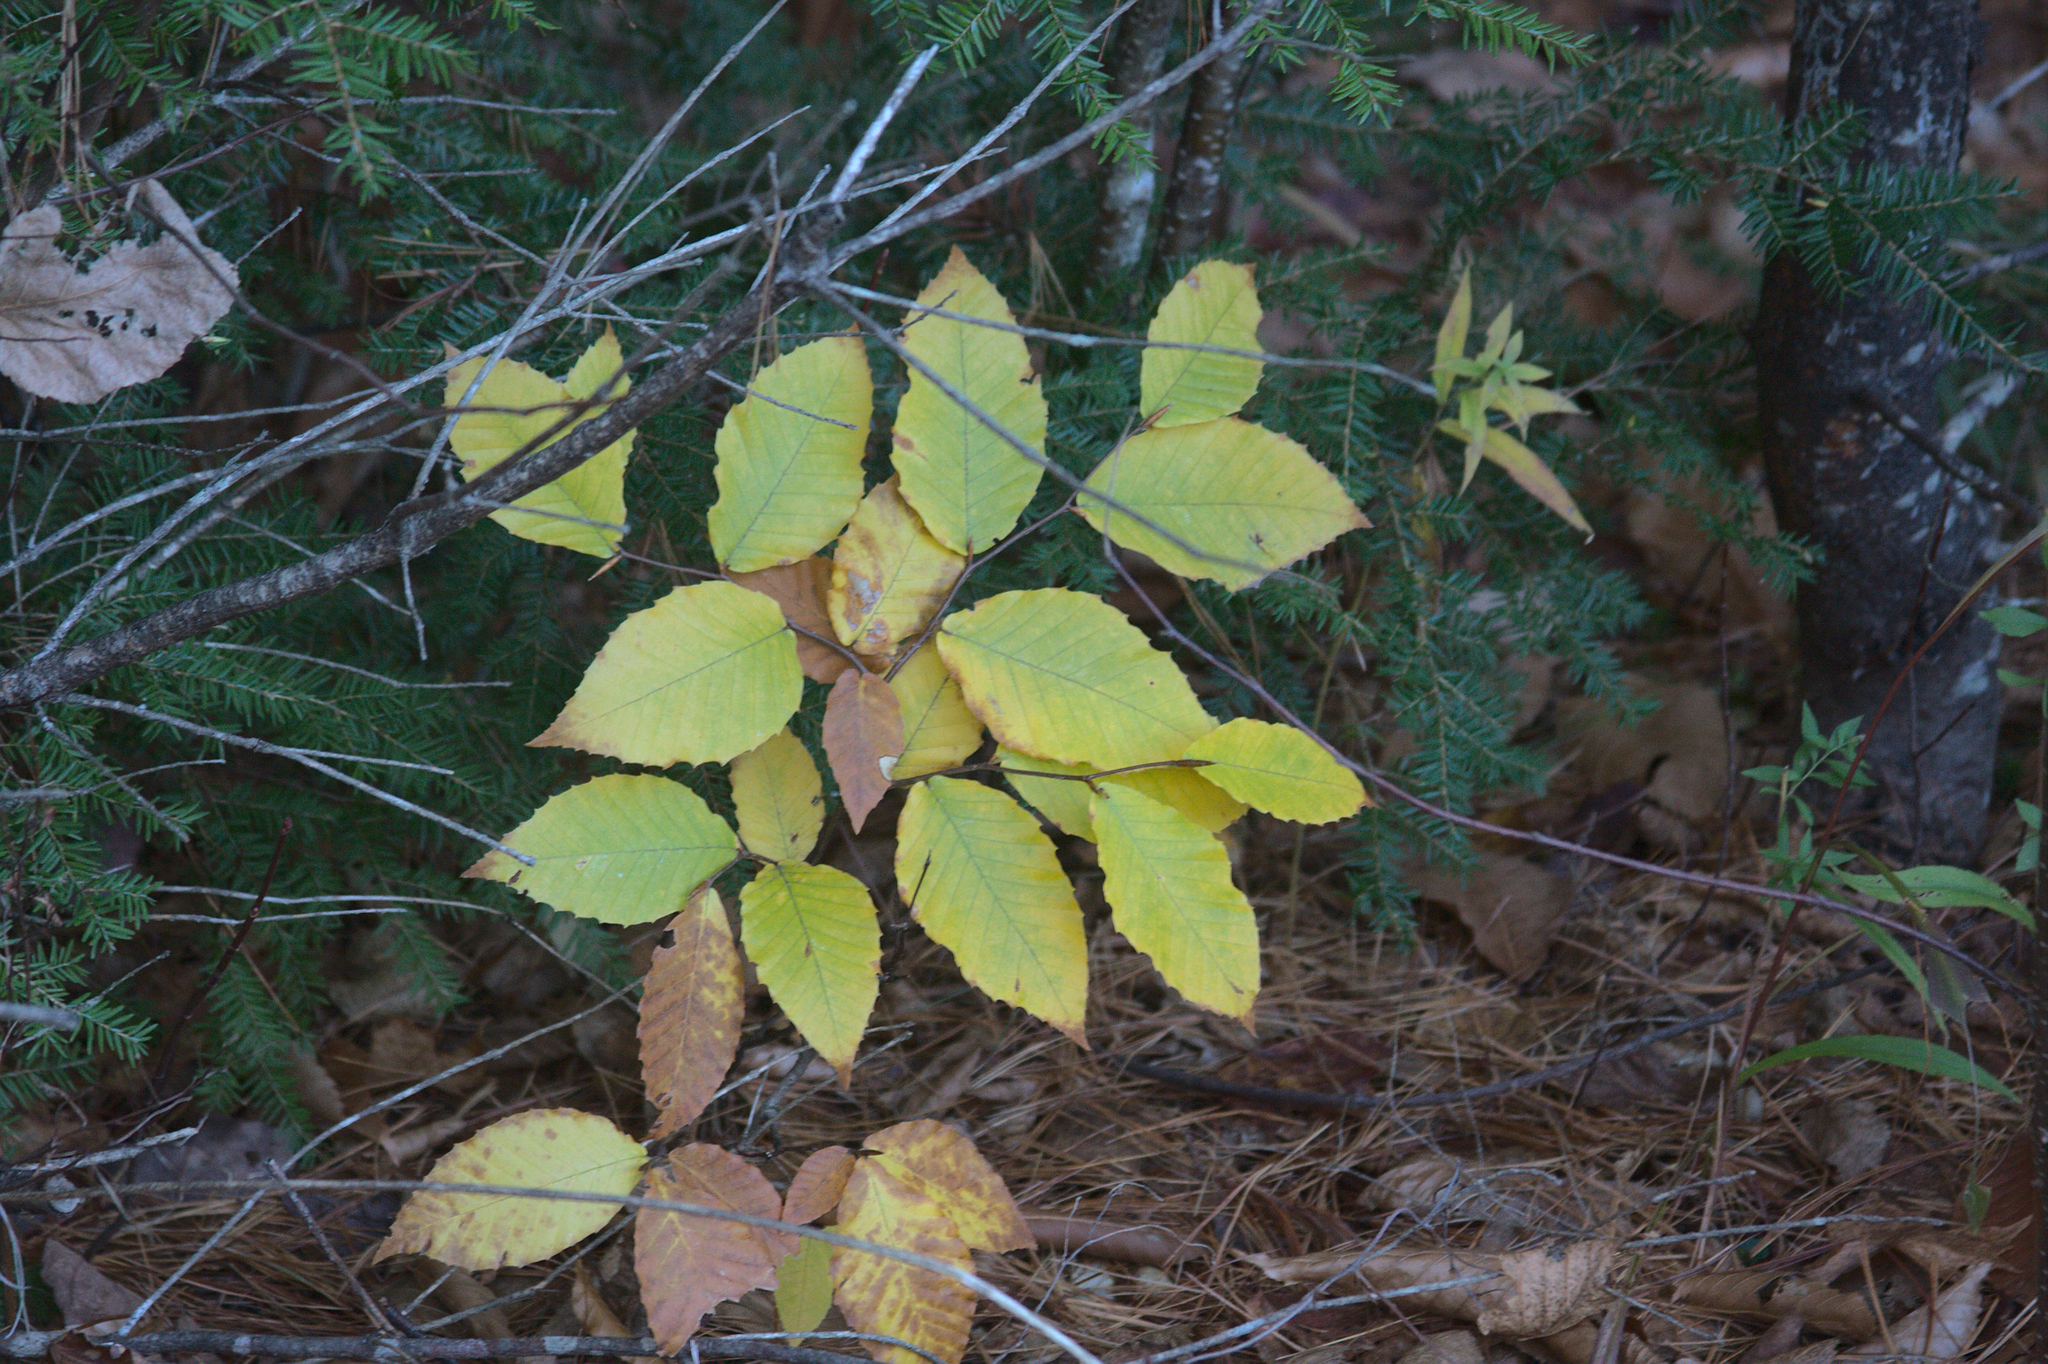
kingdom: Plantae
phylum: Tracheophyta
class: Magnoliopsida
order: Fagales
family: Fagaceae
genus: Fagus
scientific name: Fagus grandifolia
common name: American beech
